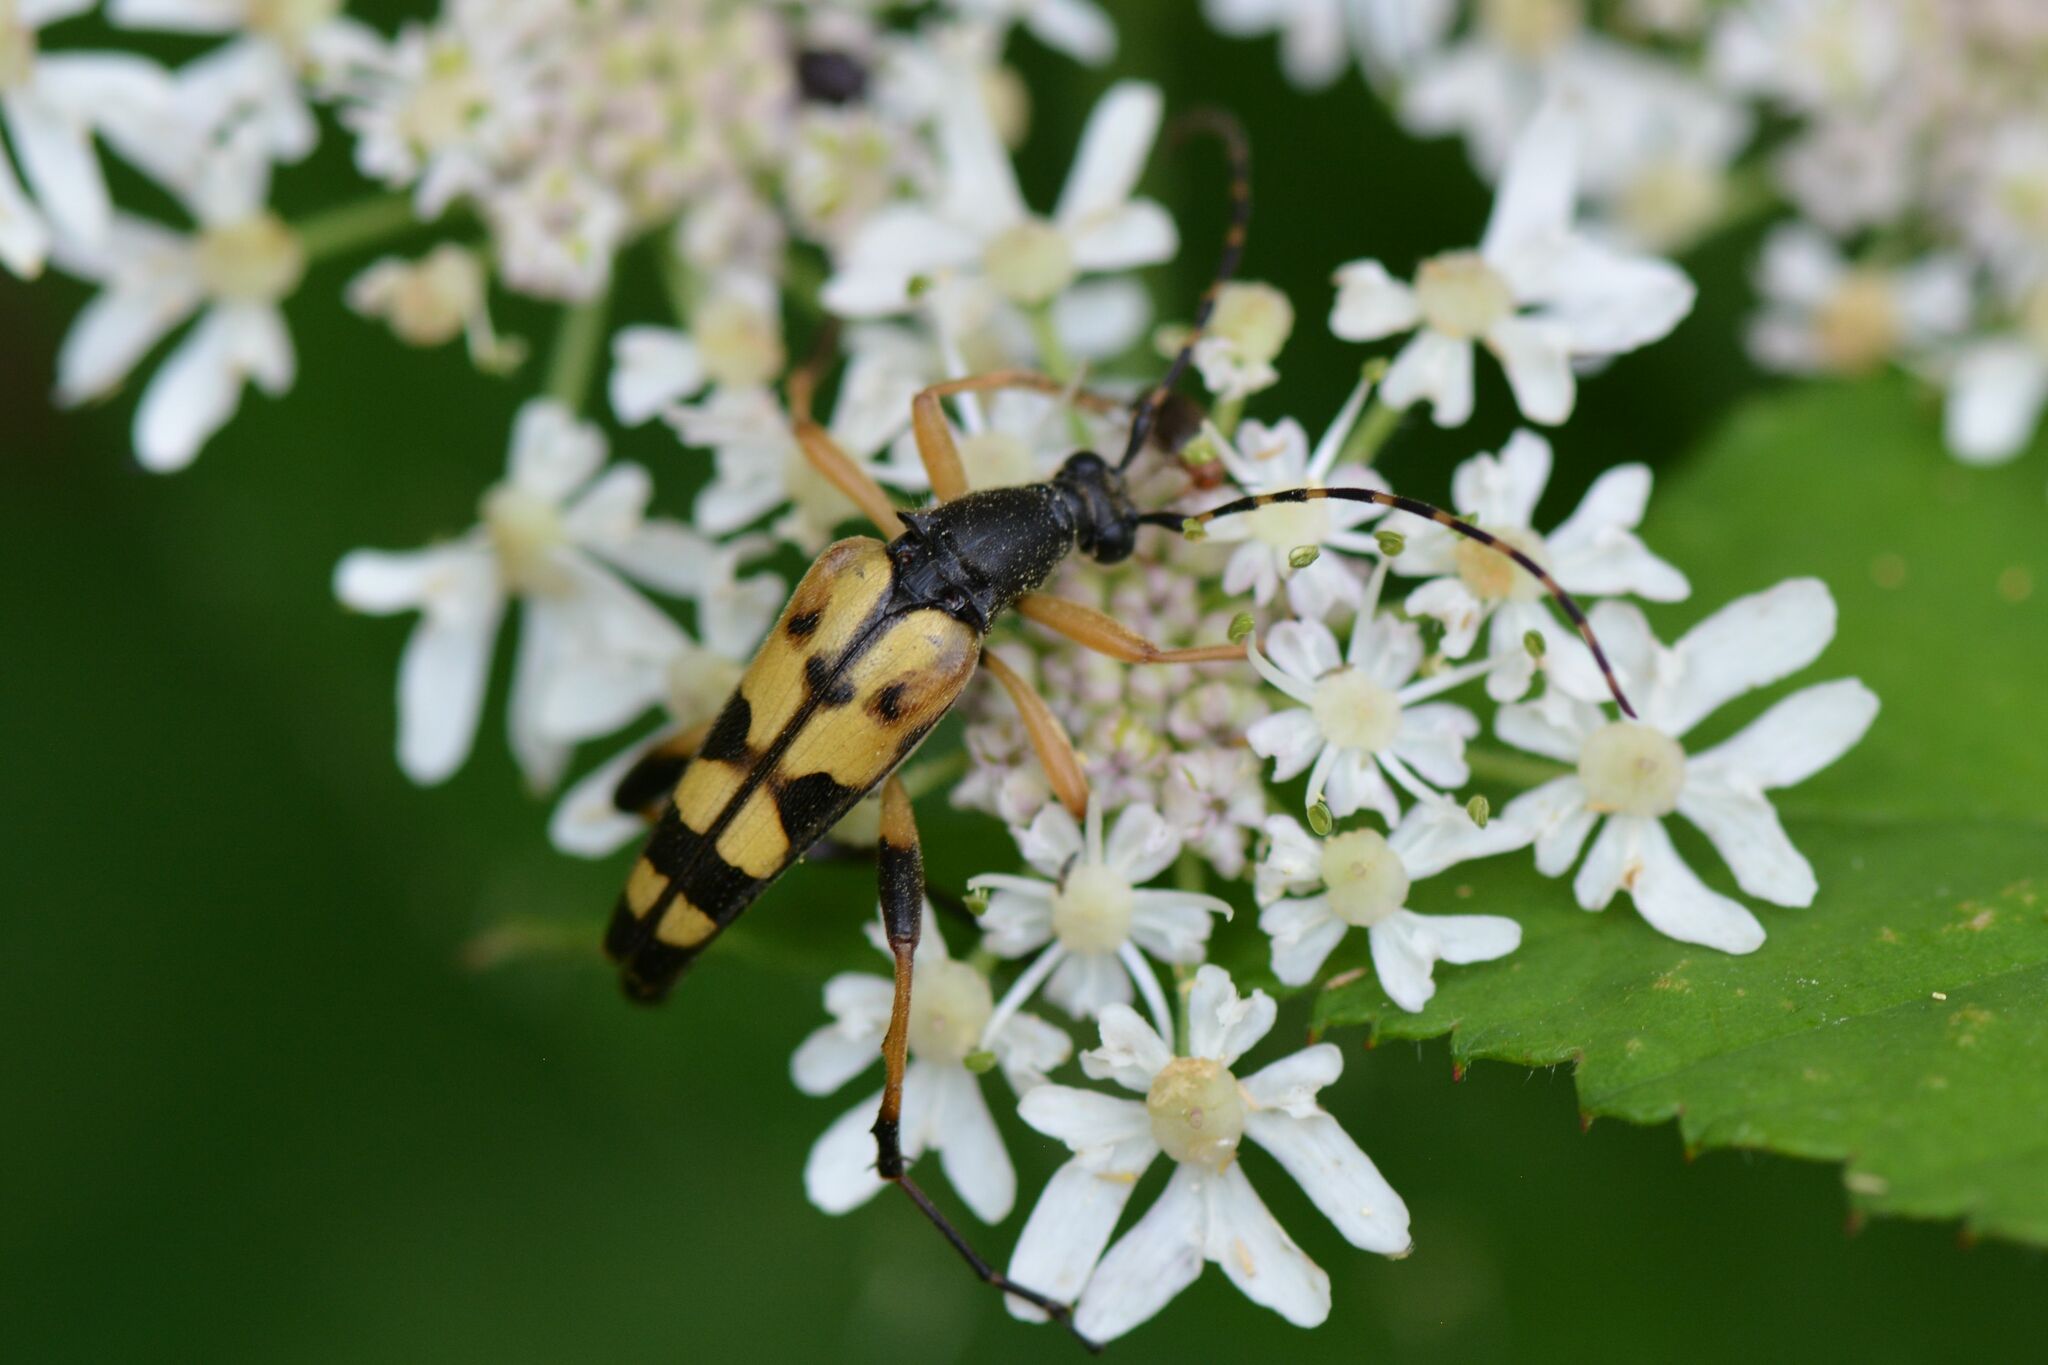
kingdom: Animalia
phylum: Arthropoda
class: Insecta
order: Coleoptera
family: Cerambycidae
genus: Rutpela
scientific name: Rutpela maculata
